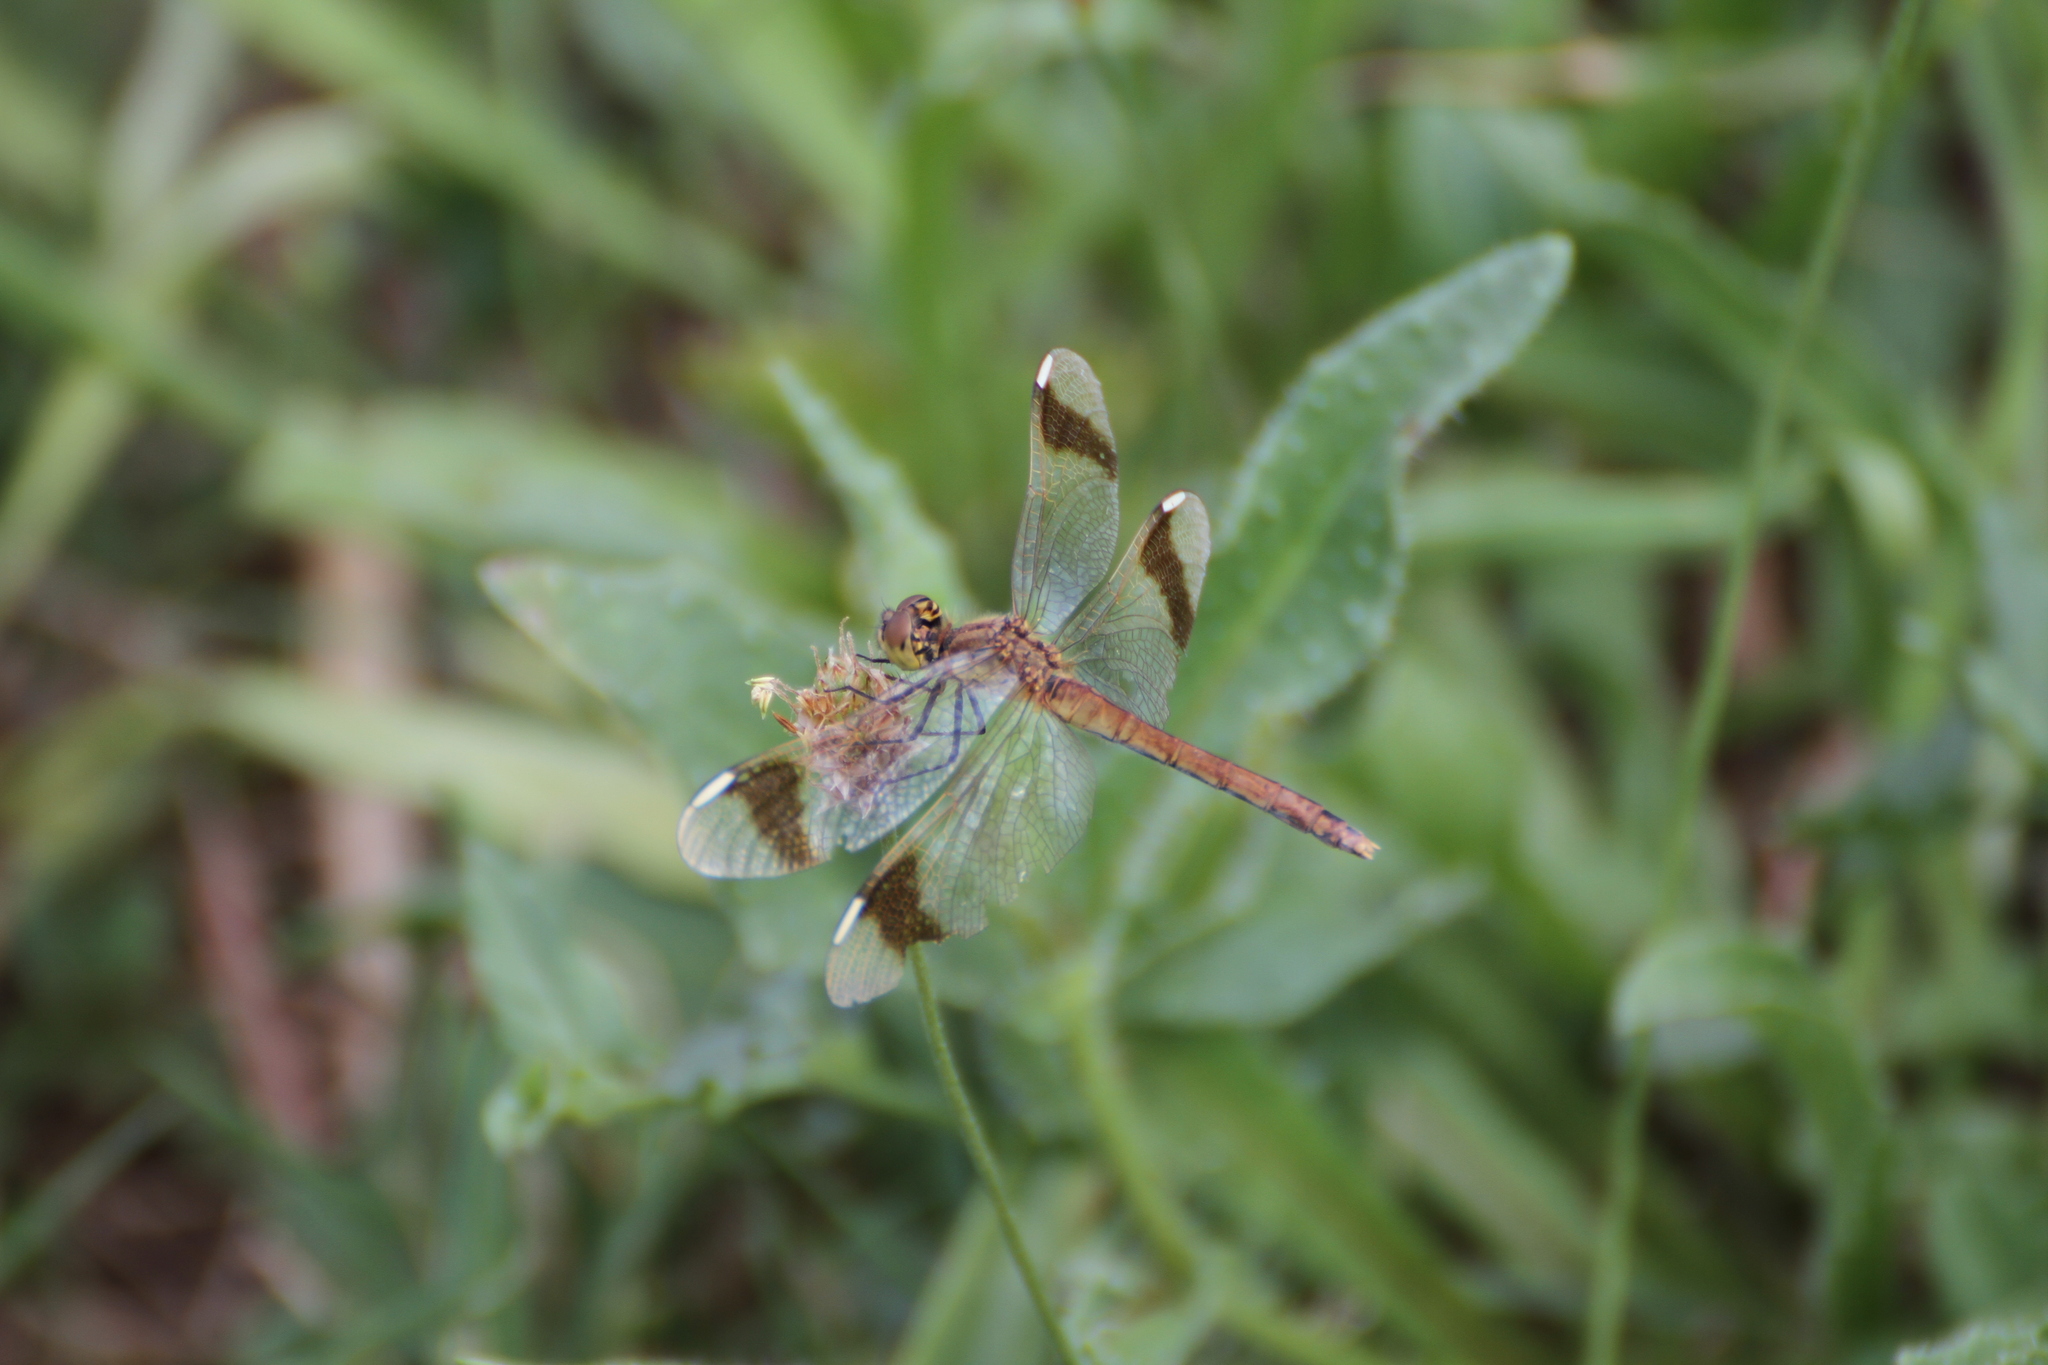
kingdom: Animalia
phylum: Arthropoda
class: Insecta
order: Odonata
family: Libellulidae
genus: Sympetrum
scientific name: Sympetrum pedemontanum
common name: Banded darter
